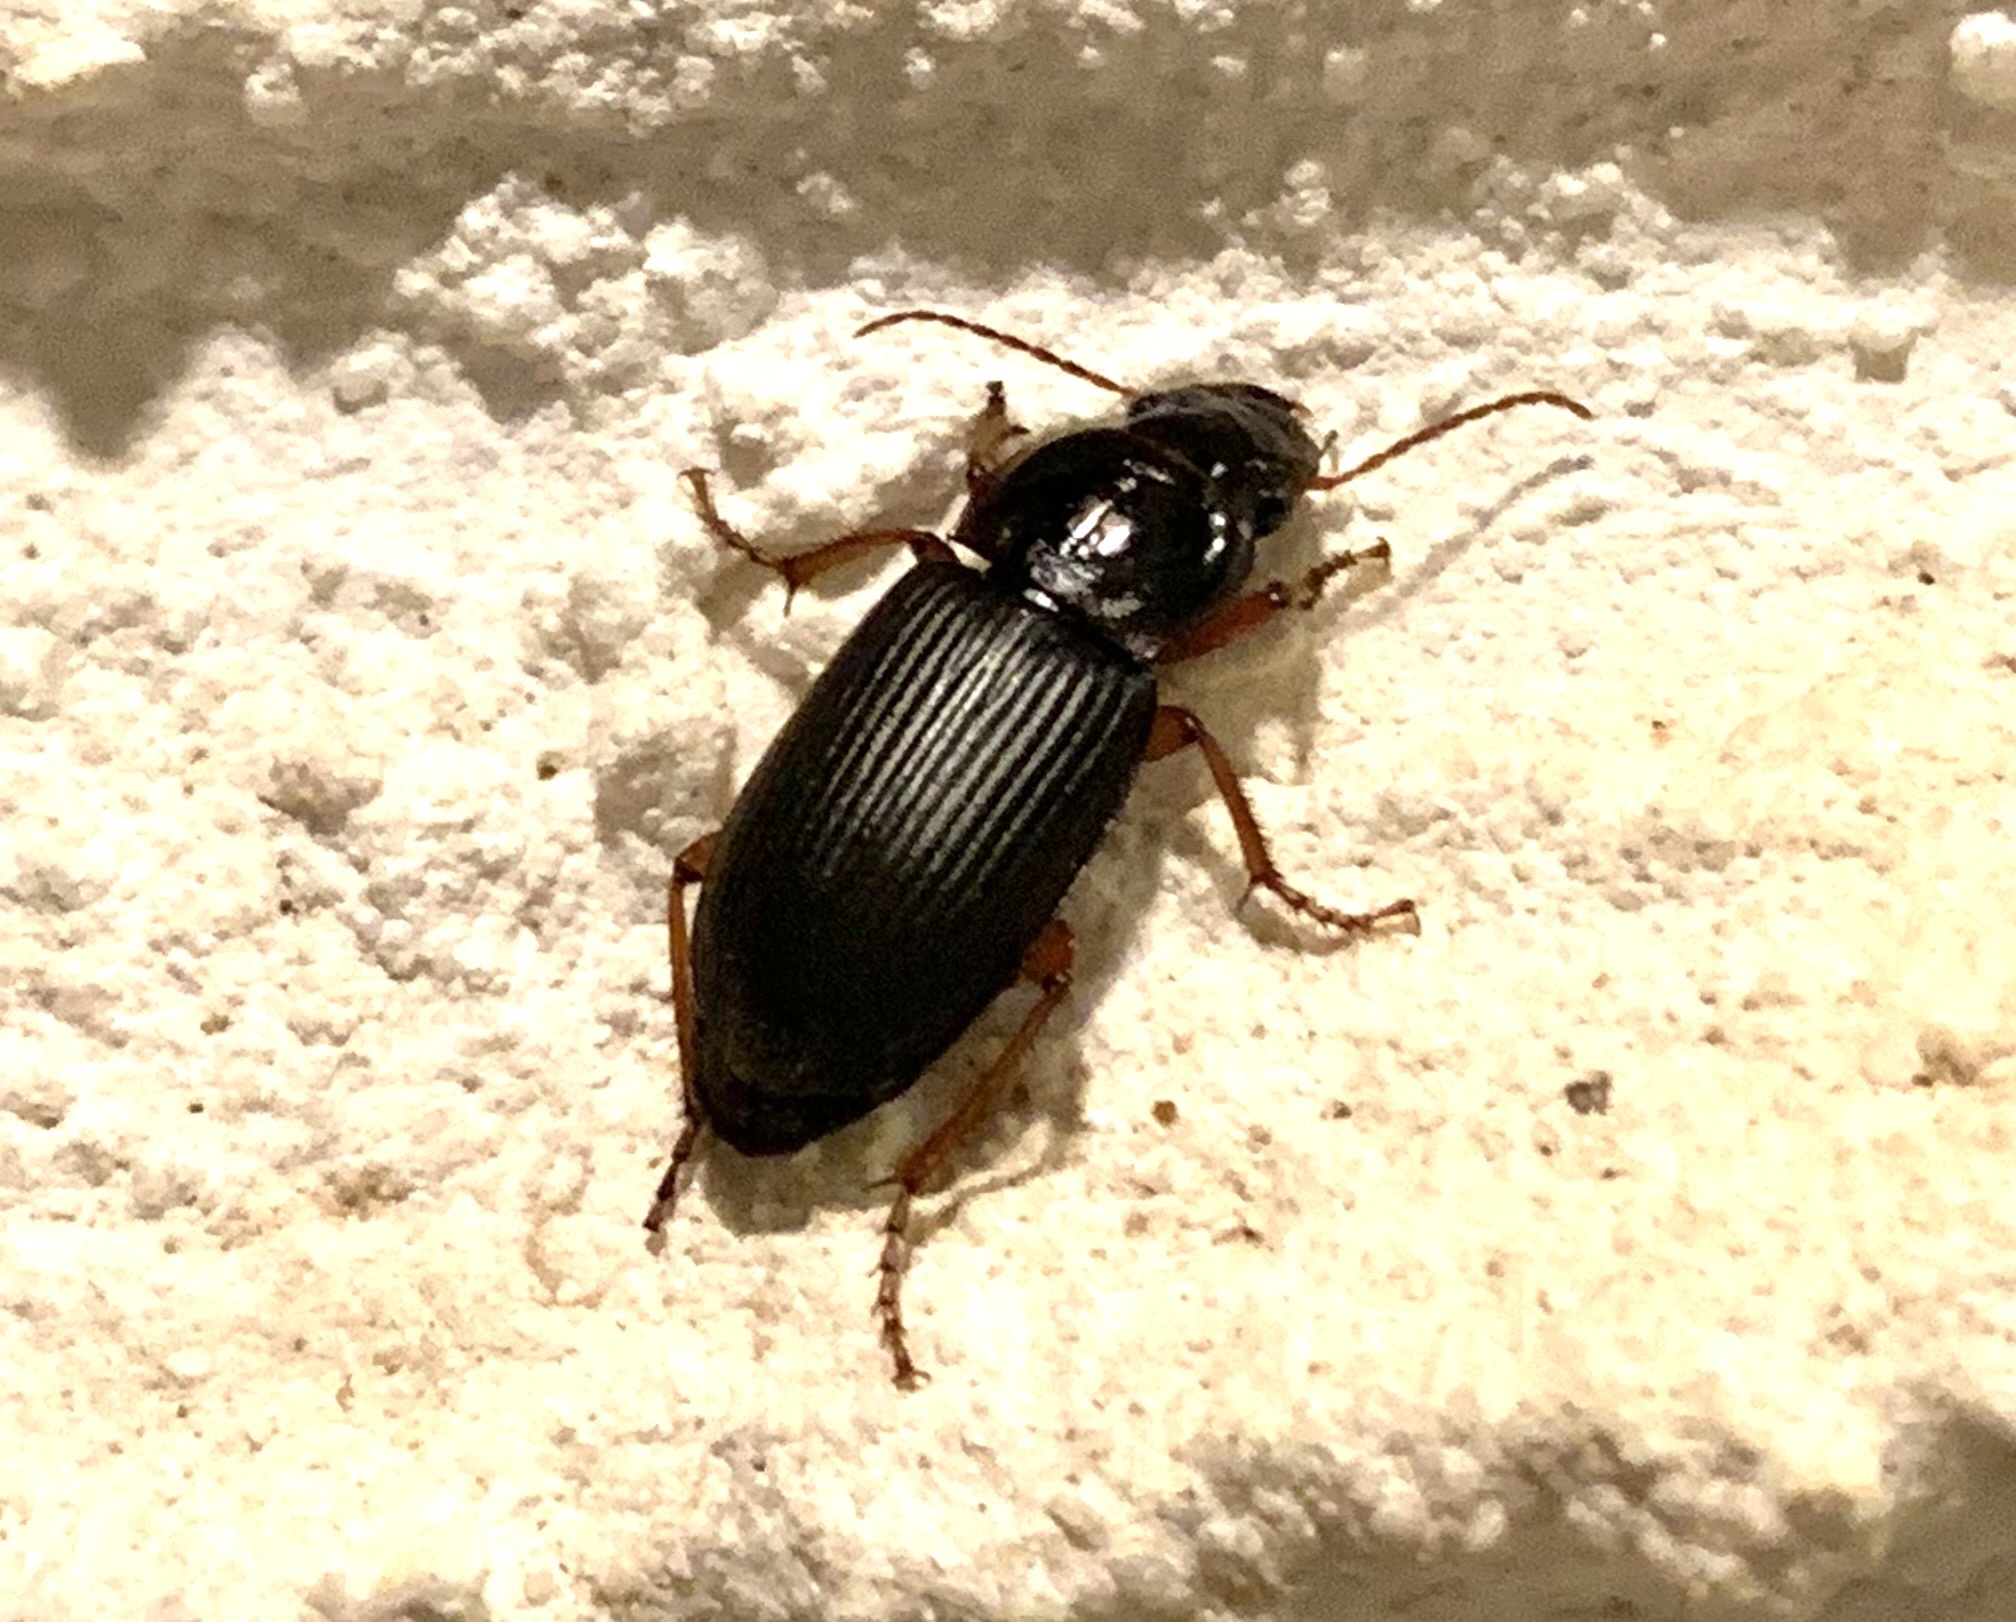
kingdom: Animalia
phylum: Arthropoda
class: Insecta
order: Coleoptera
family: Carabidae
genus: Harpalus
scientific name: Harpalus rufipes
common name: Strawberry harp ground beetle
